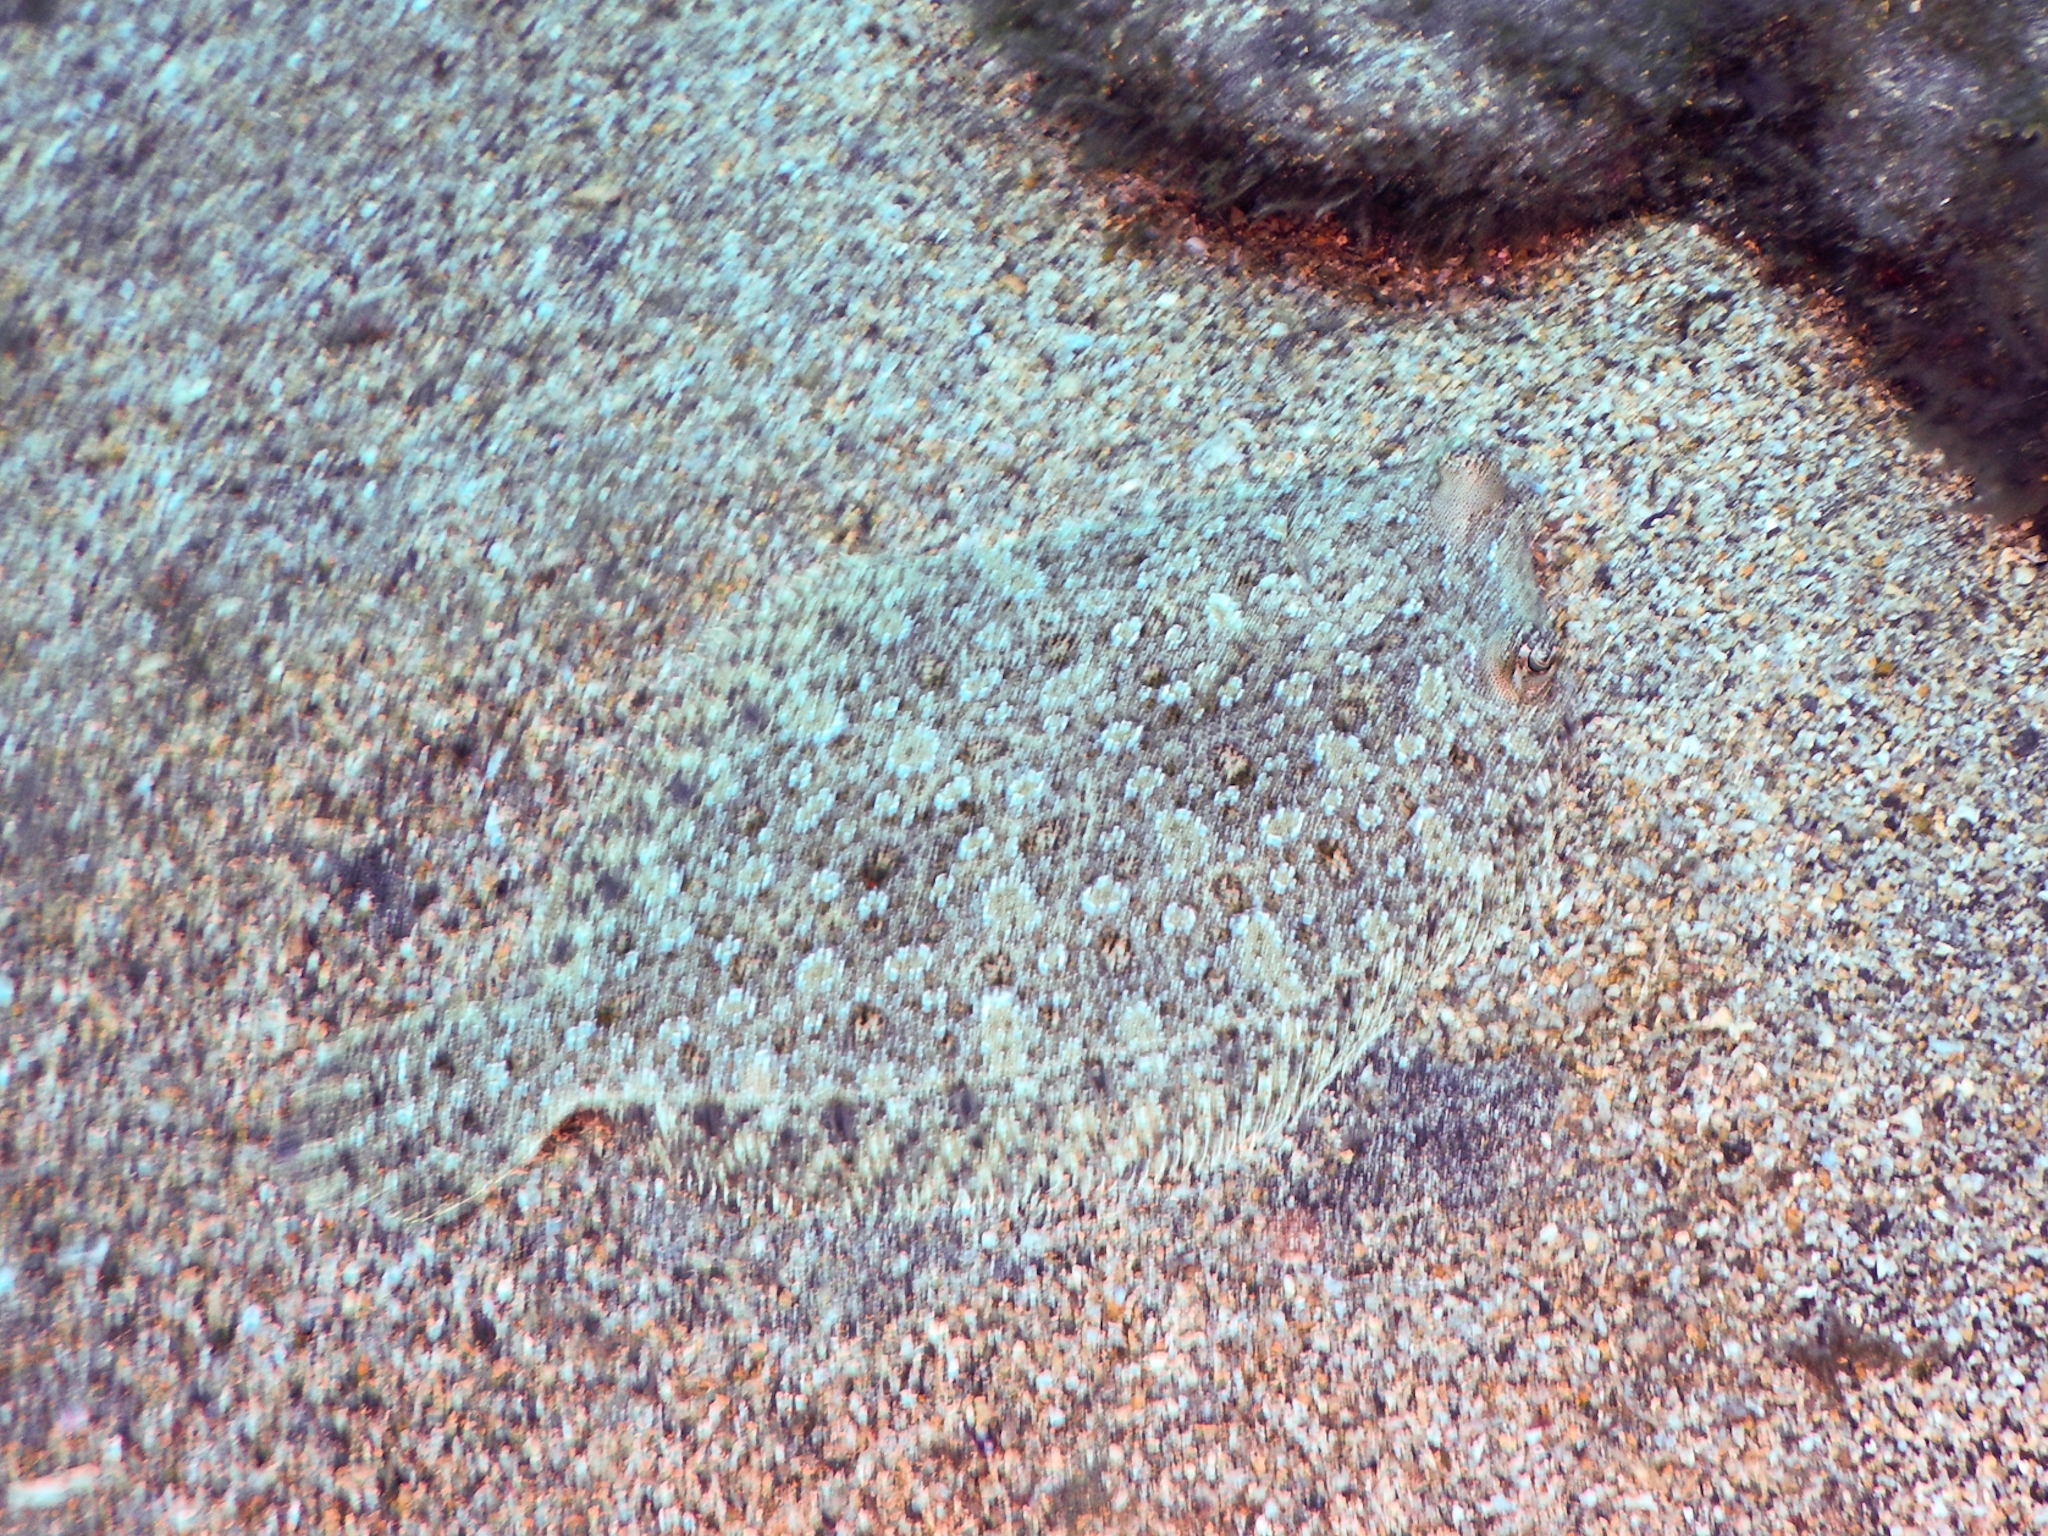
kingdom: Animalia
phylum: Chordata
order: Pleuronectiformes
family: Bothidae
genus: Bothus
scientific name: Bothus podas
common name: Wide-eyed flounder
